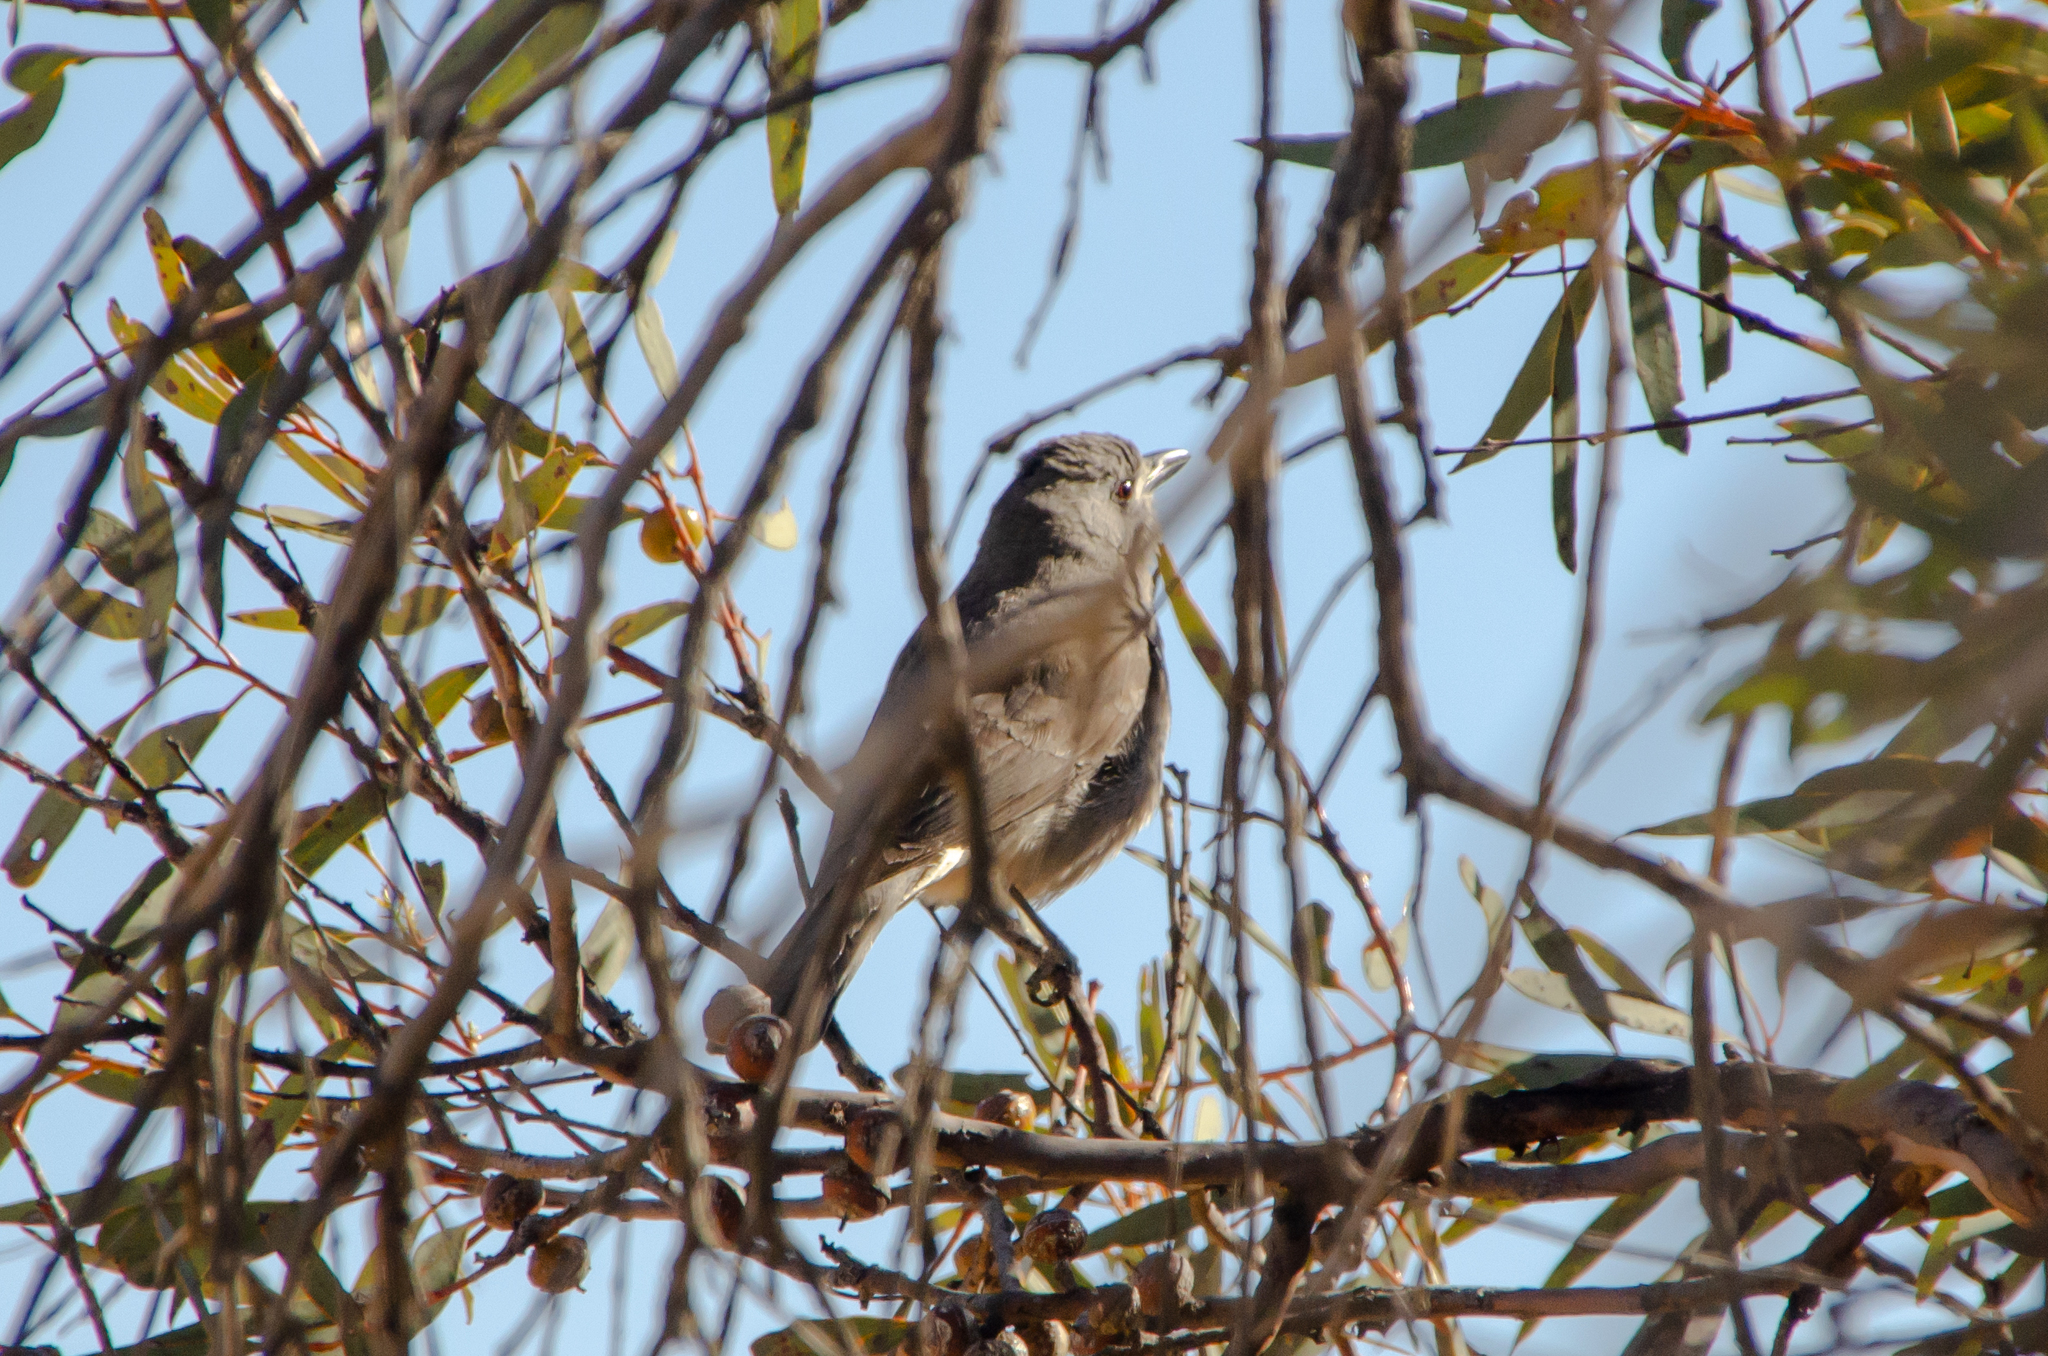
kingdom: Animalia
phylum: Chordata
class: Aves
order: Passeriformes
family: Pachycephalidae
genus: Colluricincla
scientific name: Colluricincla harmonica
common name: Grey shrikethrush
